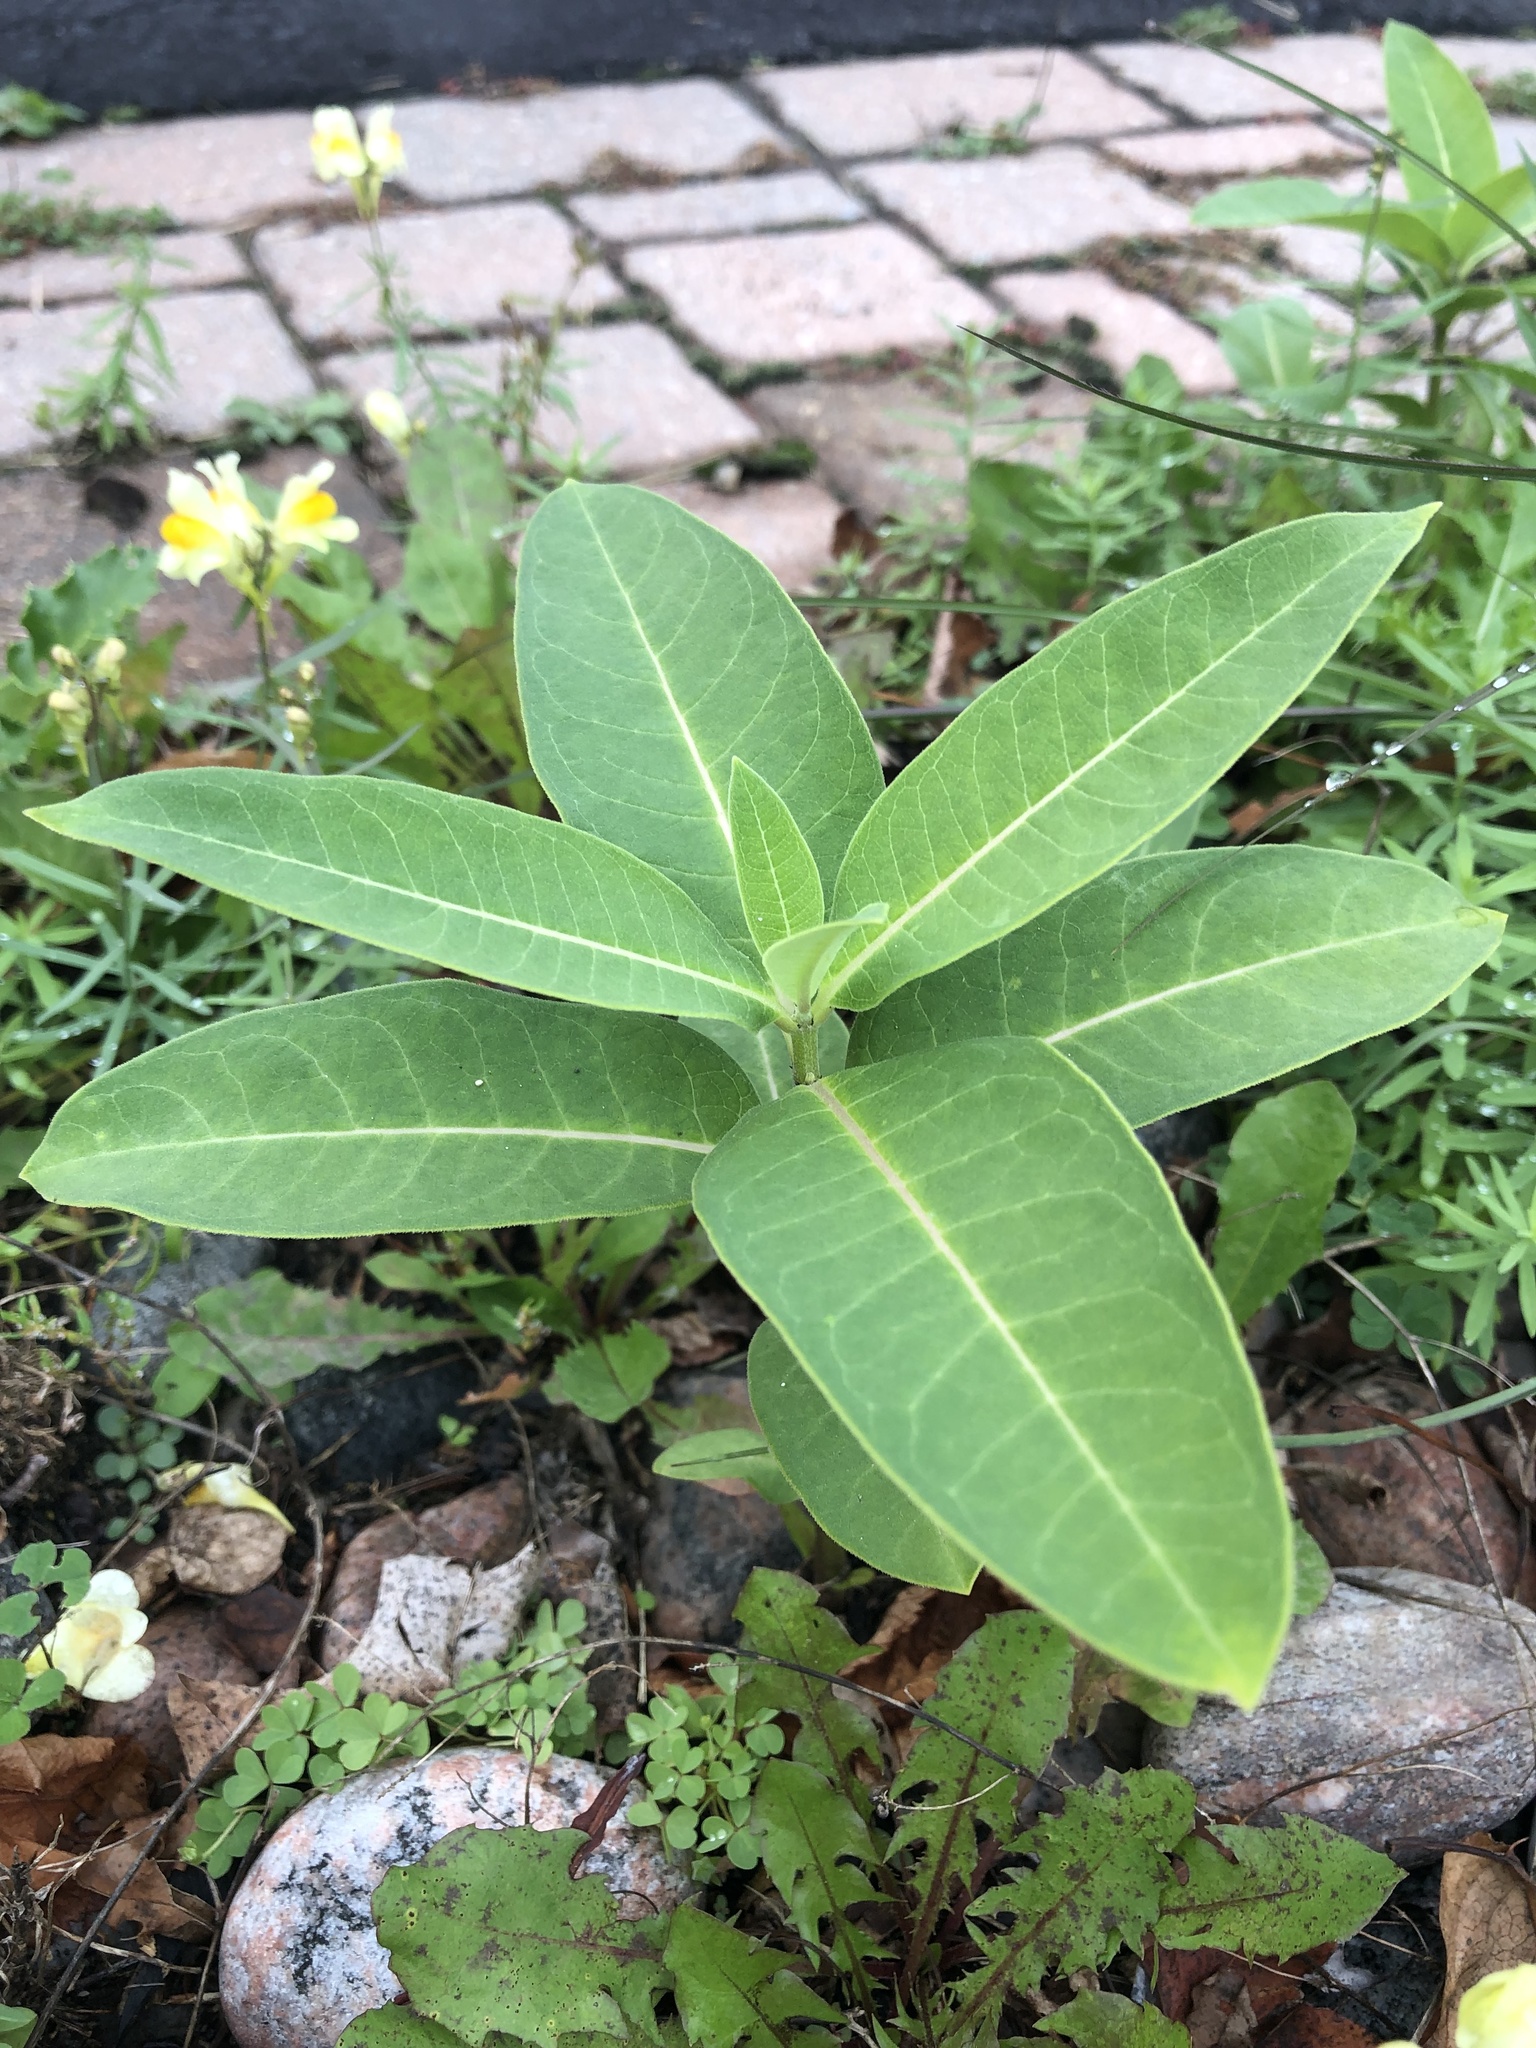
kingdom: Plantae
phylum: Tracheophyta
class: Magnoliopsida
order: Gentianales
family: Apocynaceae
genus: Asclepias
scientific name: Asclepias syriaca
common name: Common milkweed
